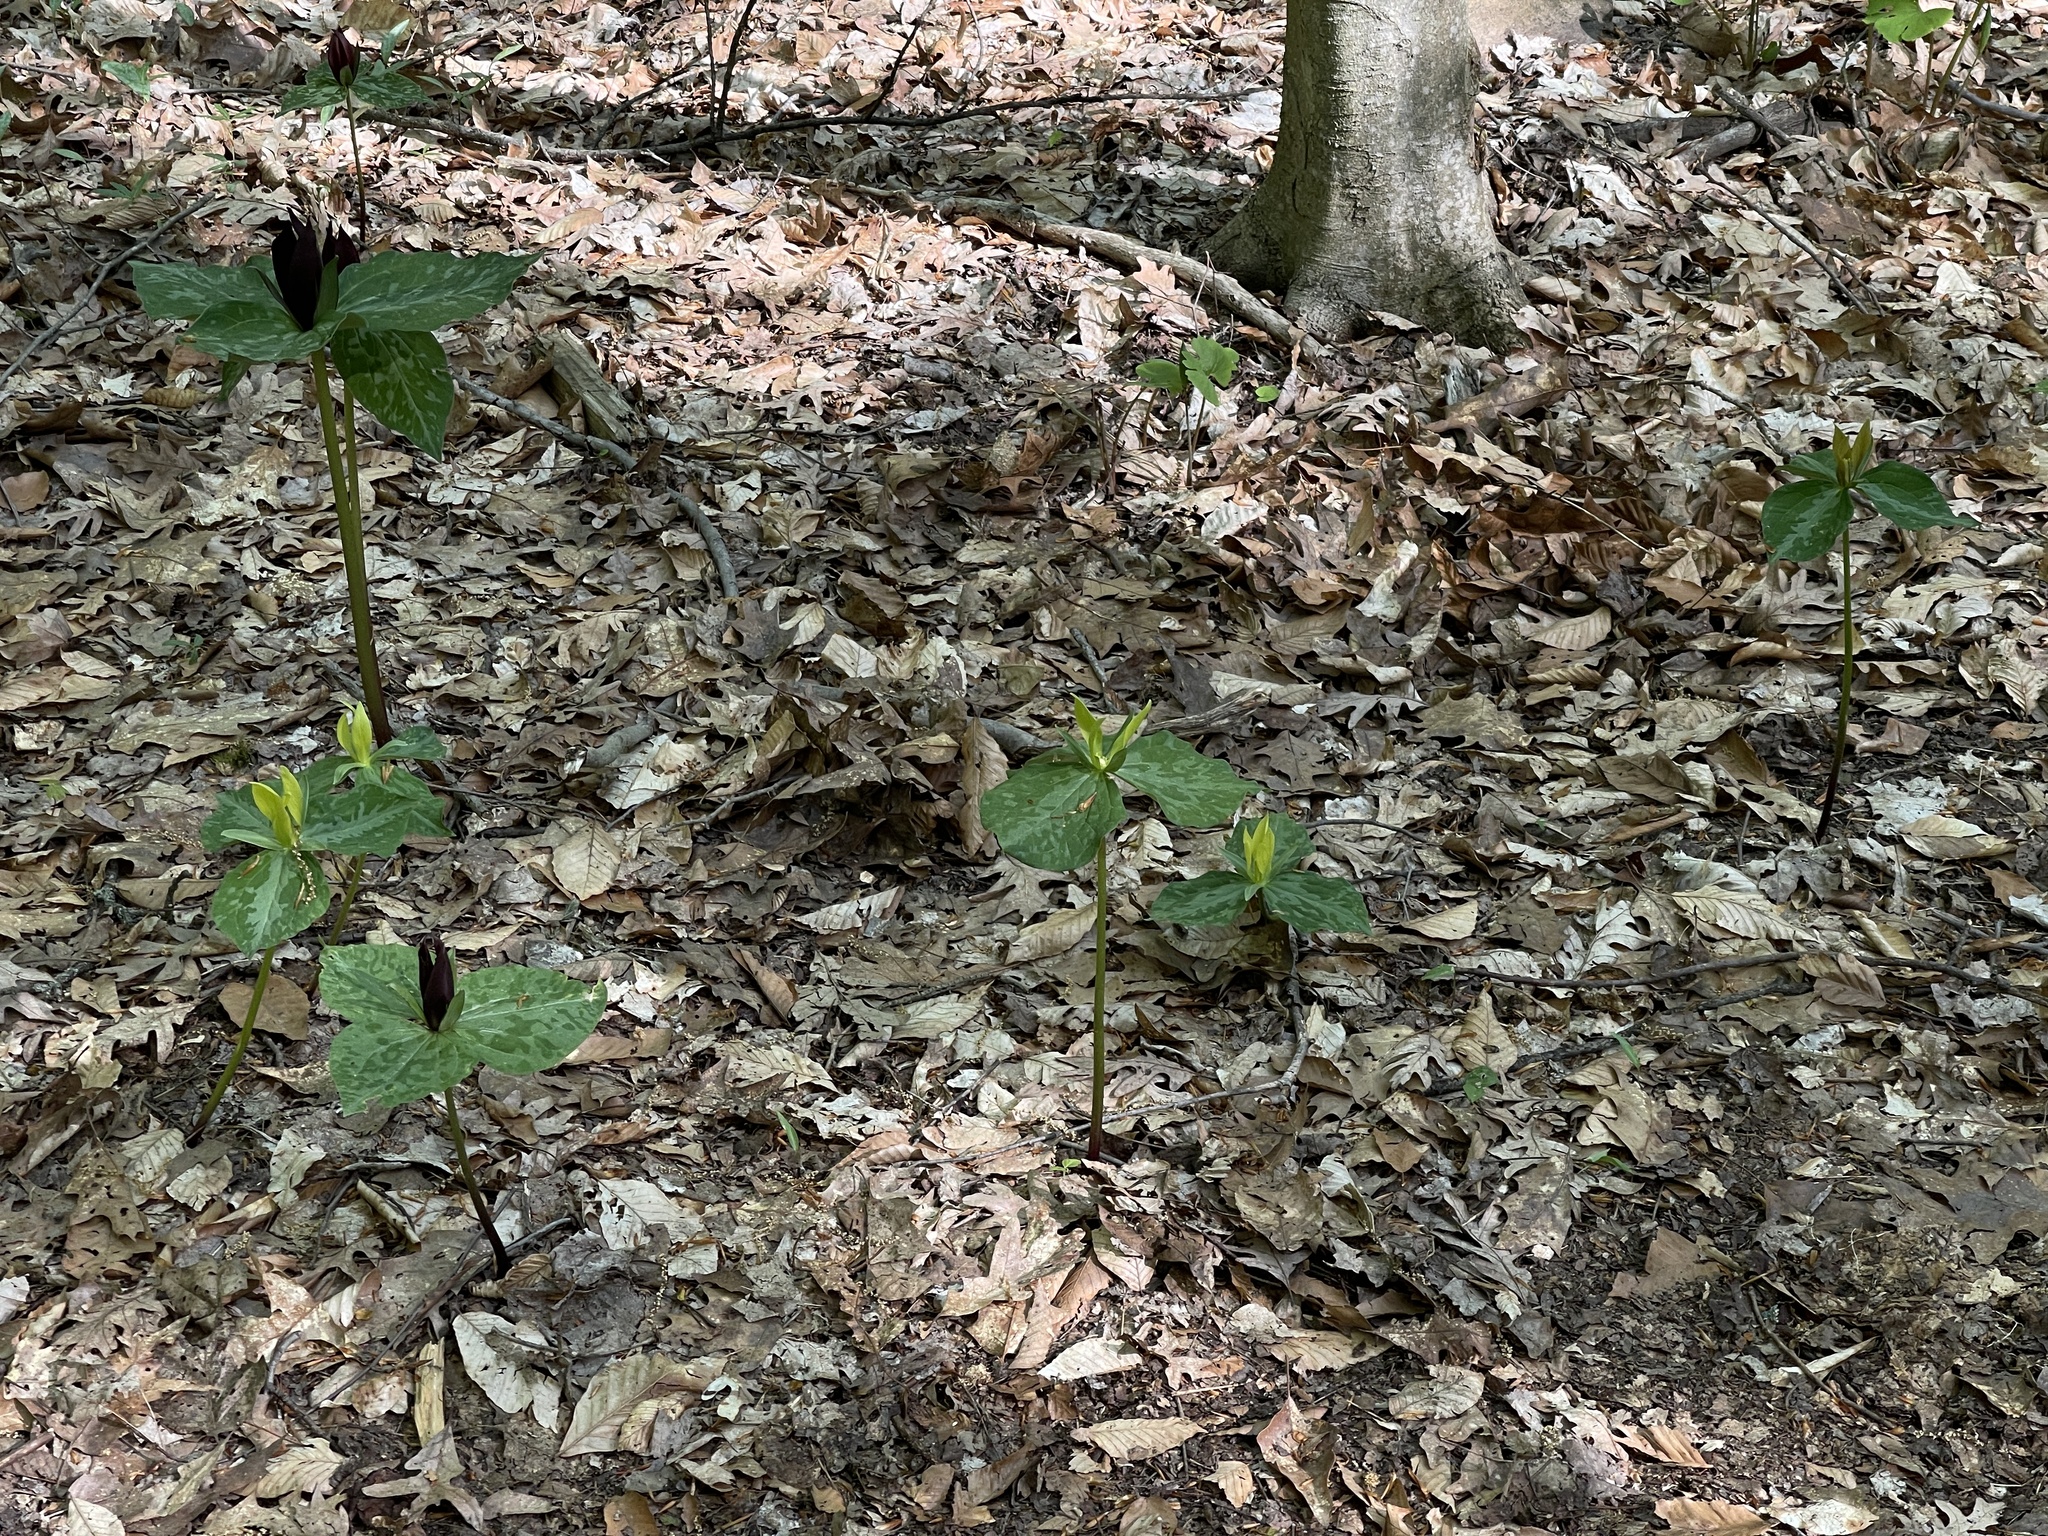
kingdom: Plantae
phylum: Tracheophyta
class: Liliopsida
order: Liliales
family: Melanthiaceae
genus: Trillium
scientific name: Trillium cuneatum
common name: Cuneate trillium
